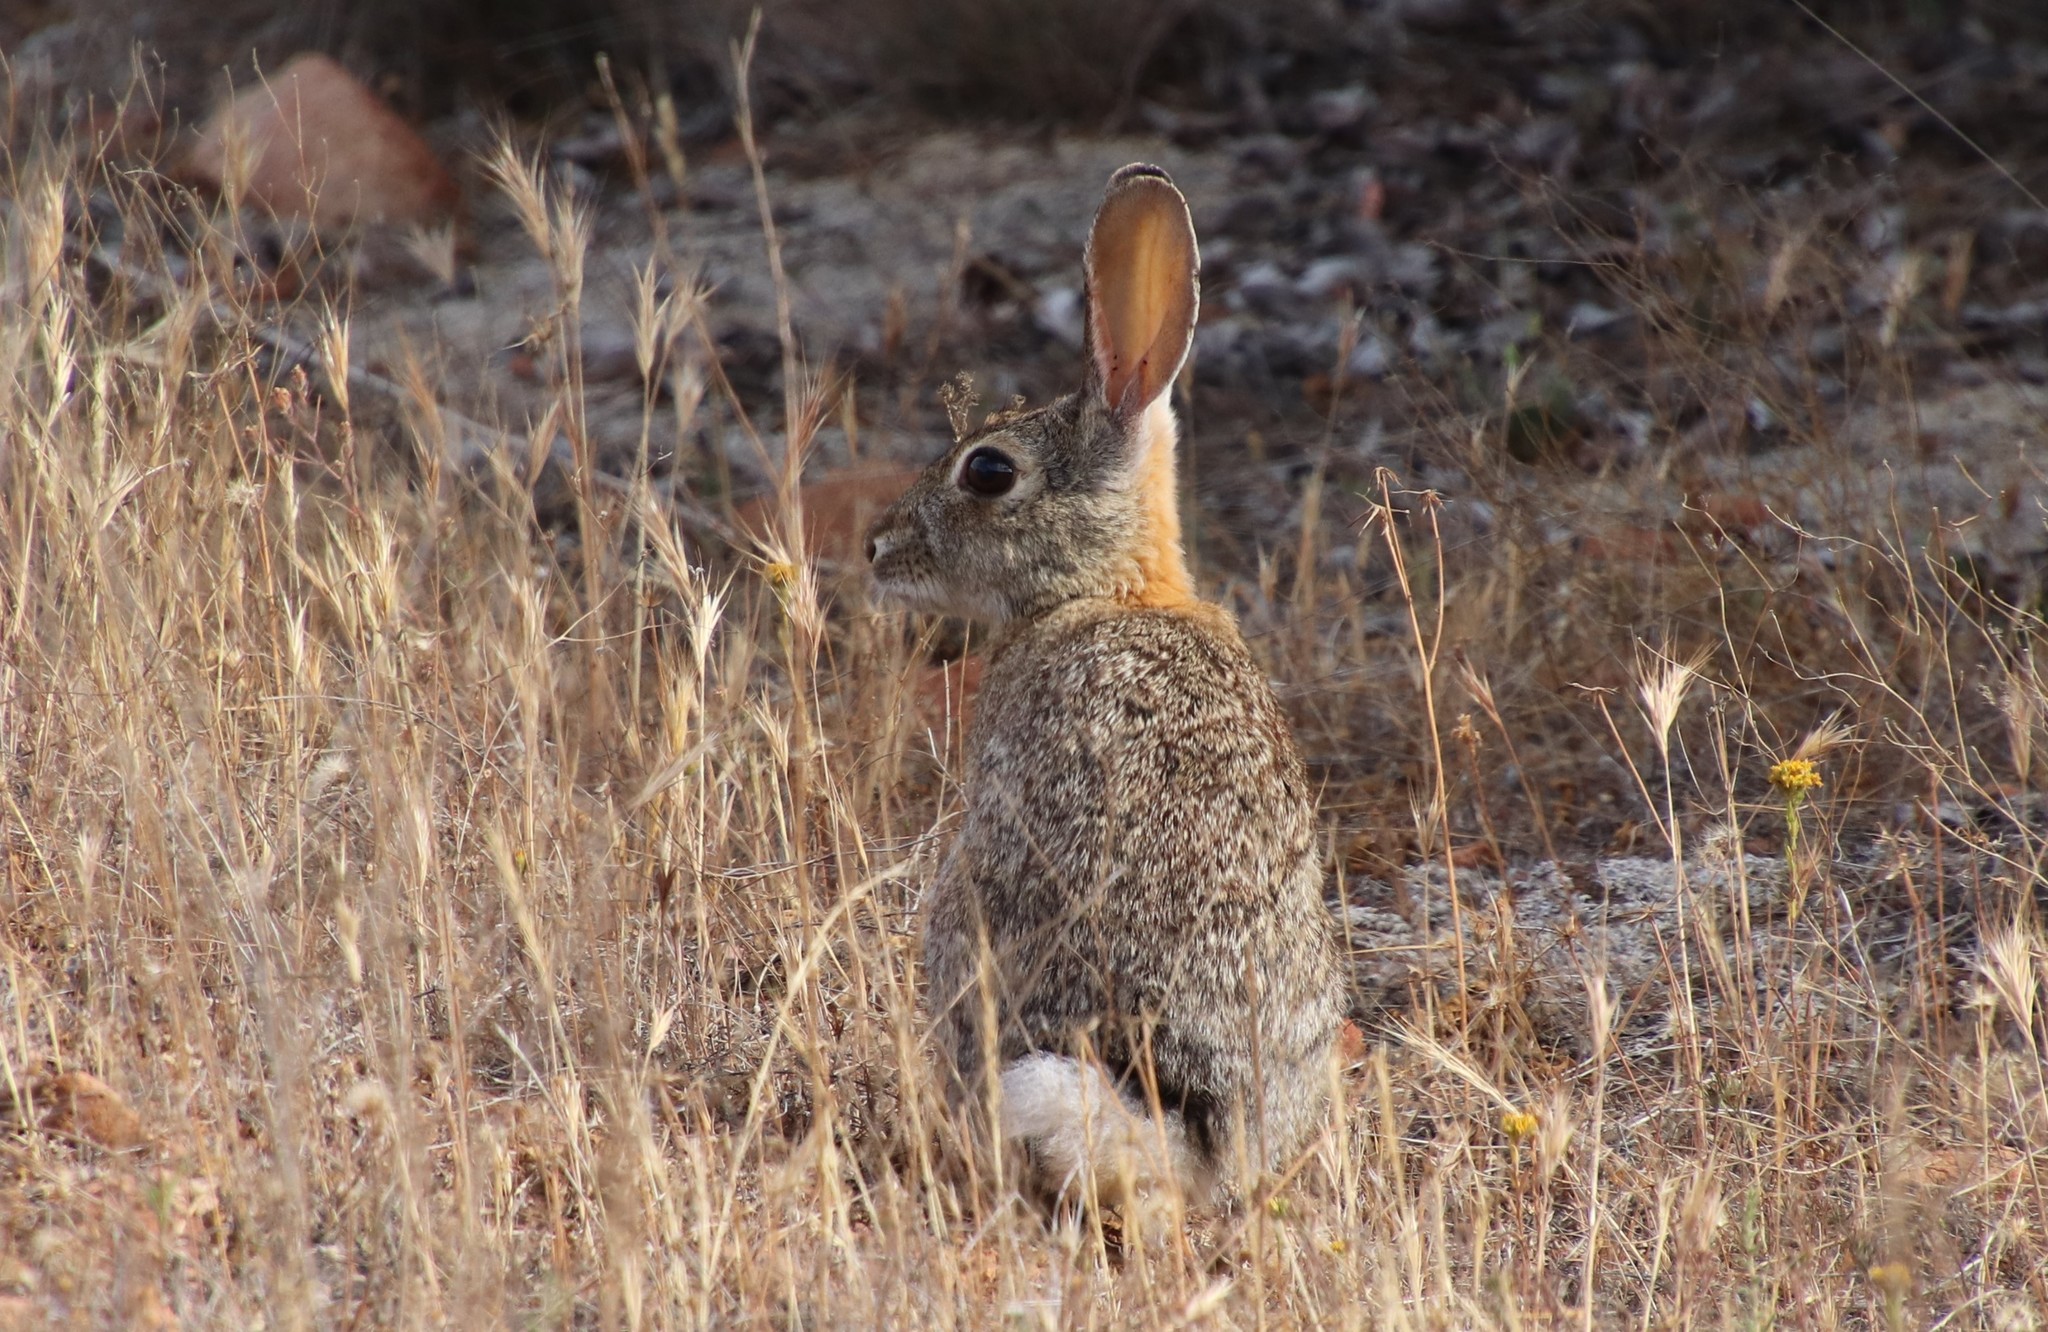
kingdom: Animalia
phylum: Chordata
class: Mammalia
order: Lagomorpha
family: Leporidae
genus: Sylvilagus
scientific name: Sylvilagus audubonii
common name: Desert cottontail
